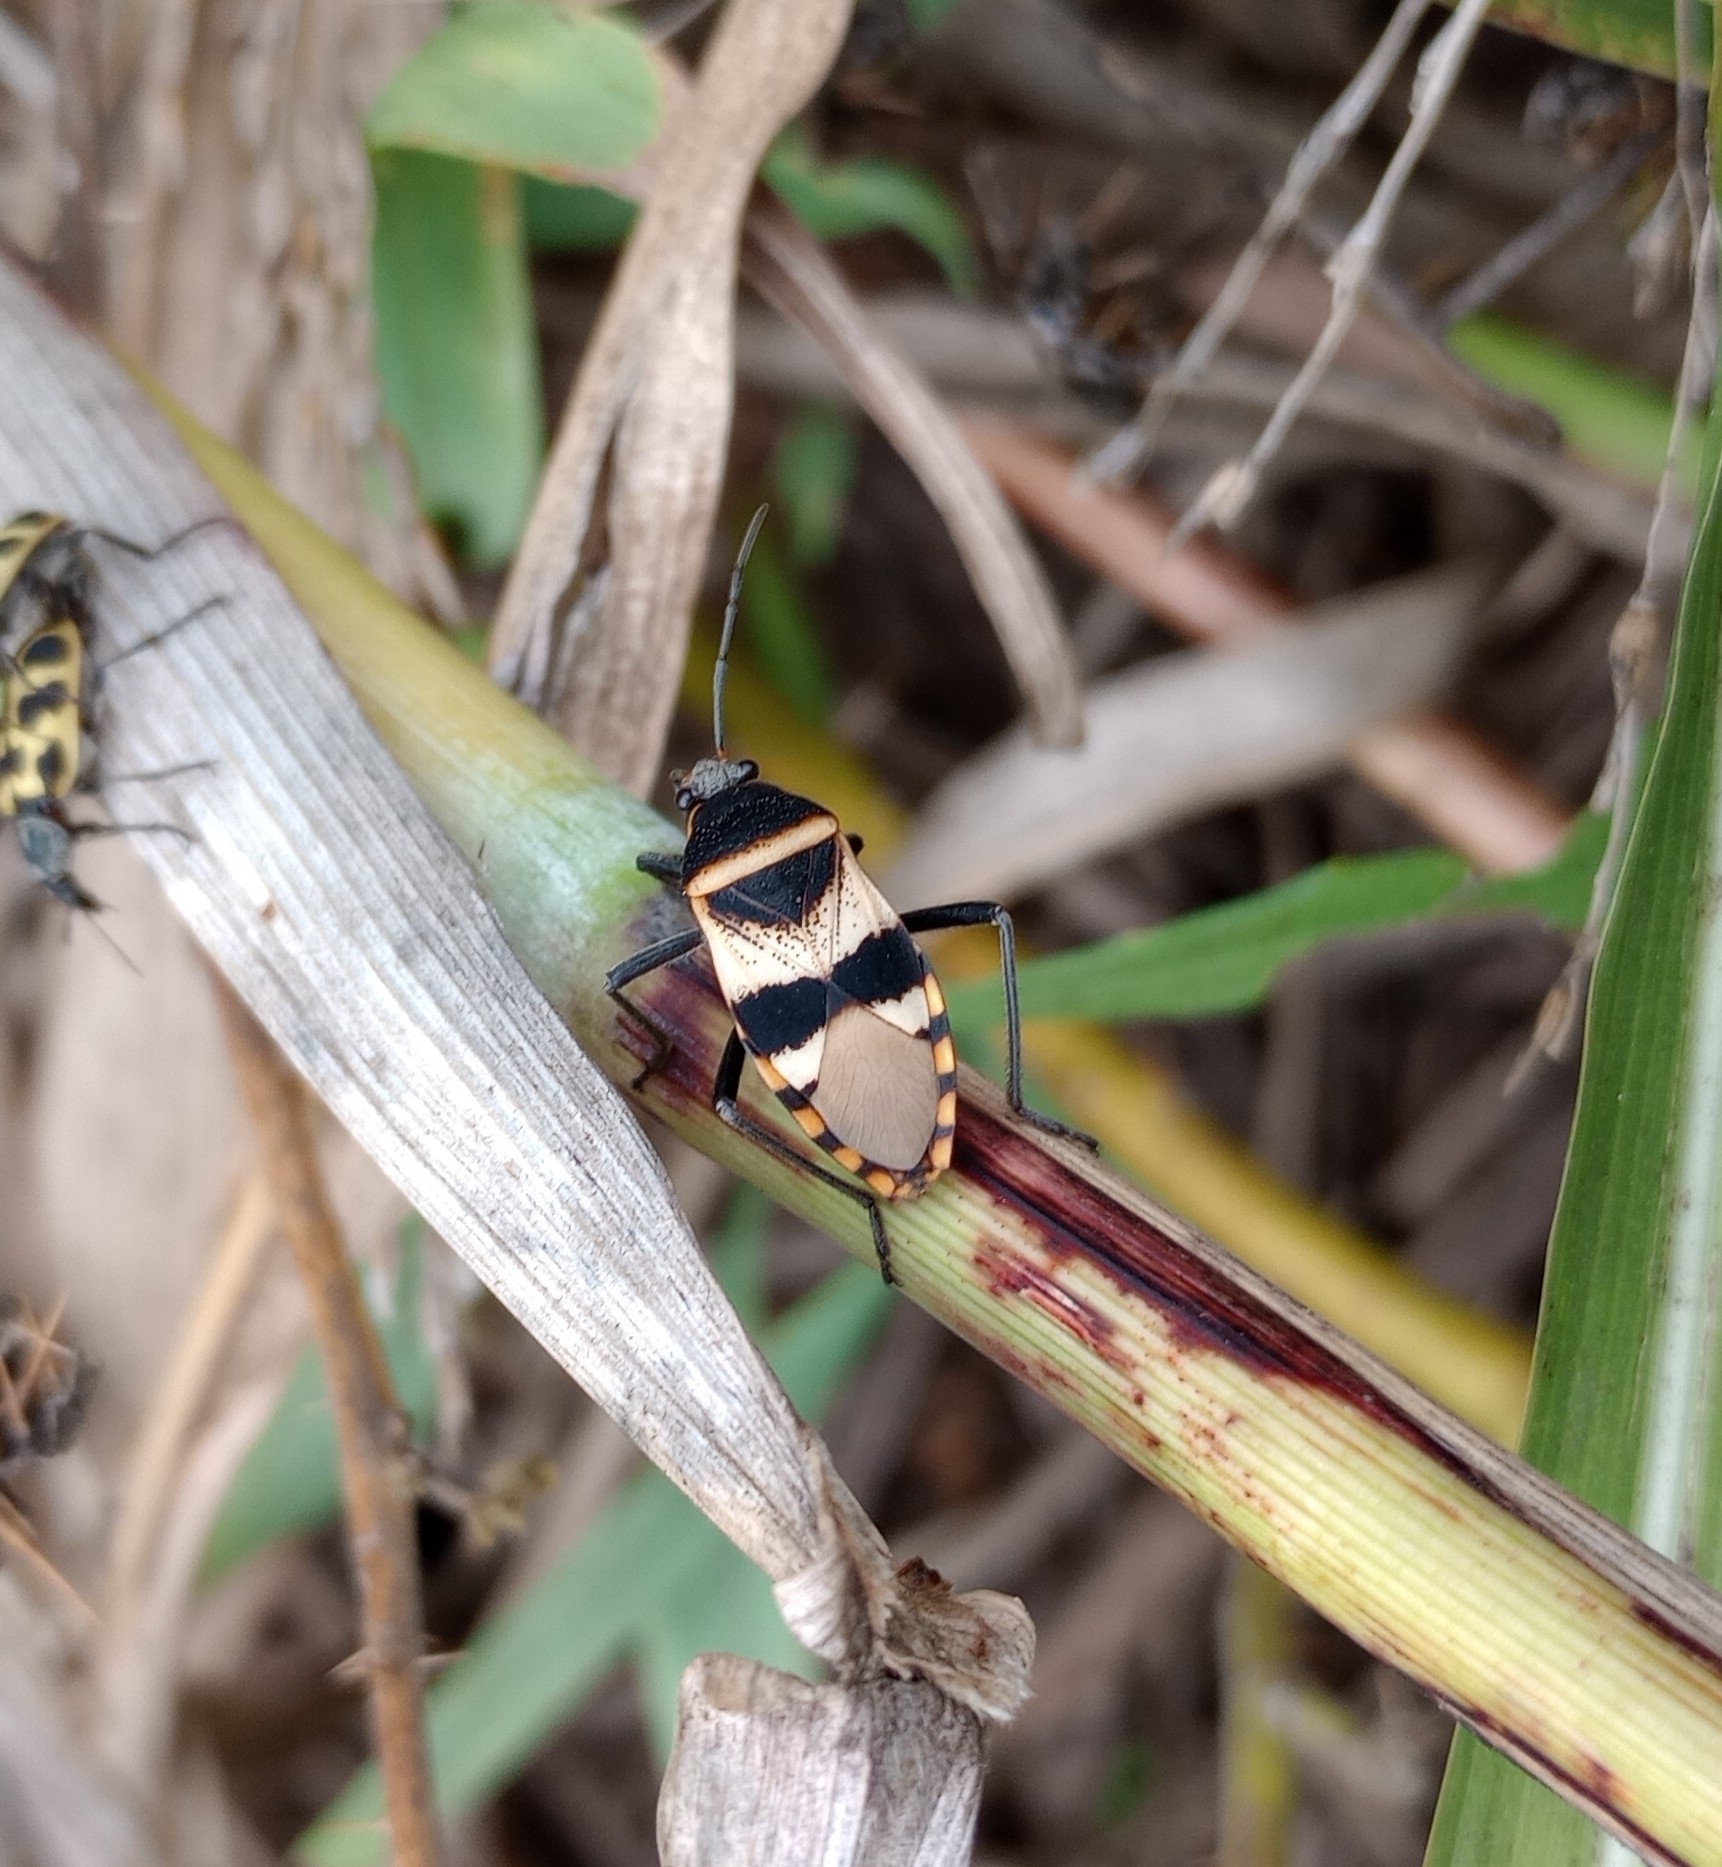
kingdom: Animalia
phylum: Arthropoda
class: Insecta
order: Hemiptera
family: Largidae
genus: Largus
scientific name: Largus fasciatus
